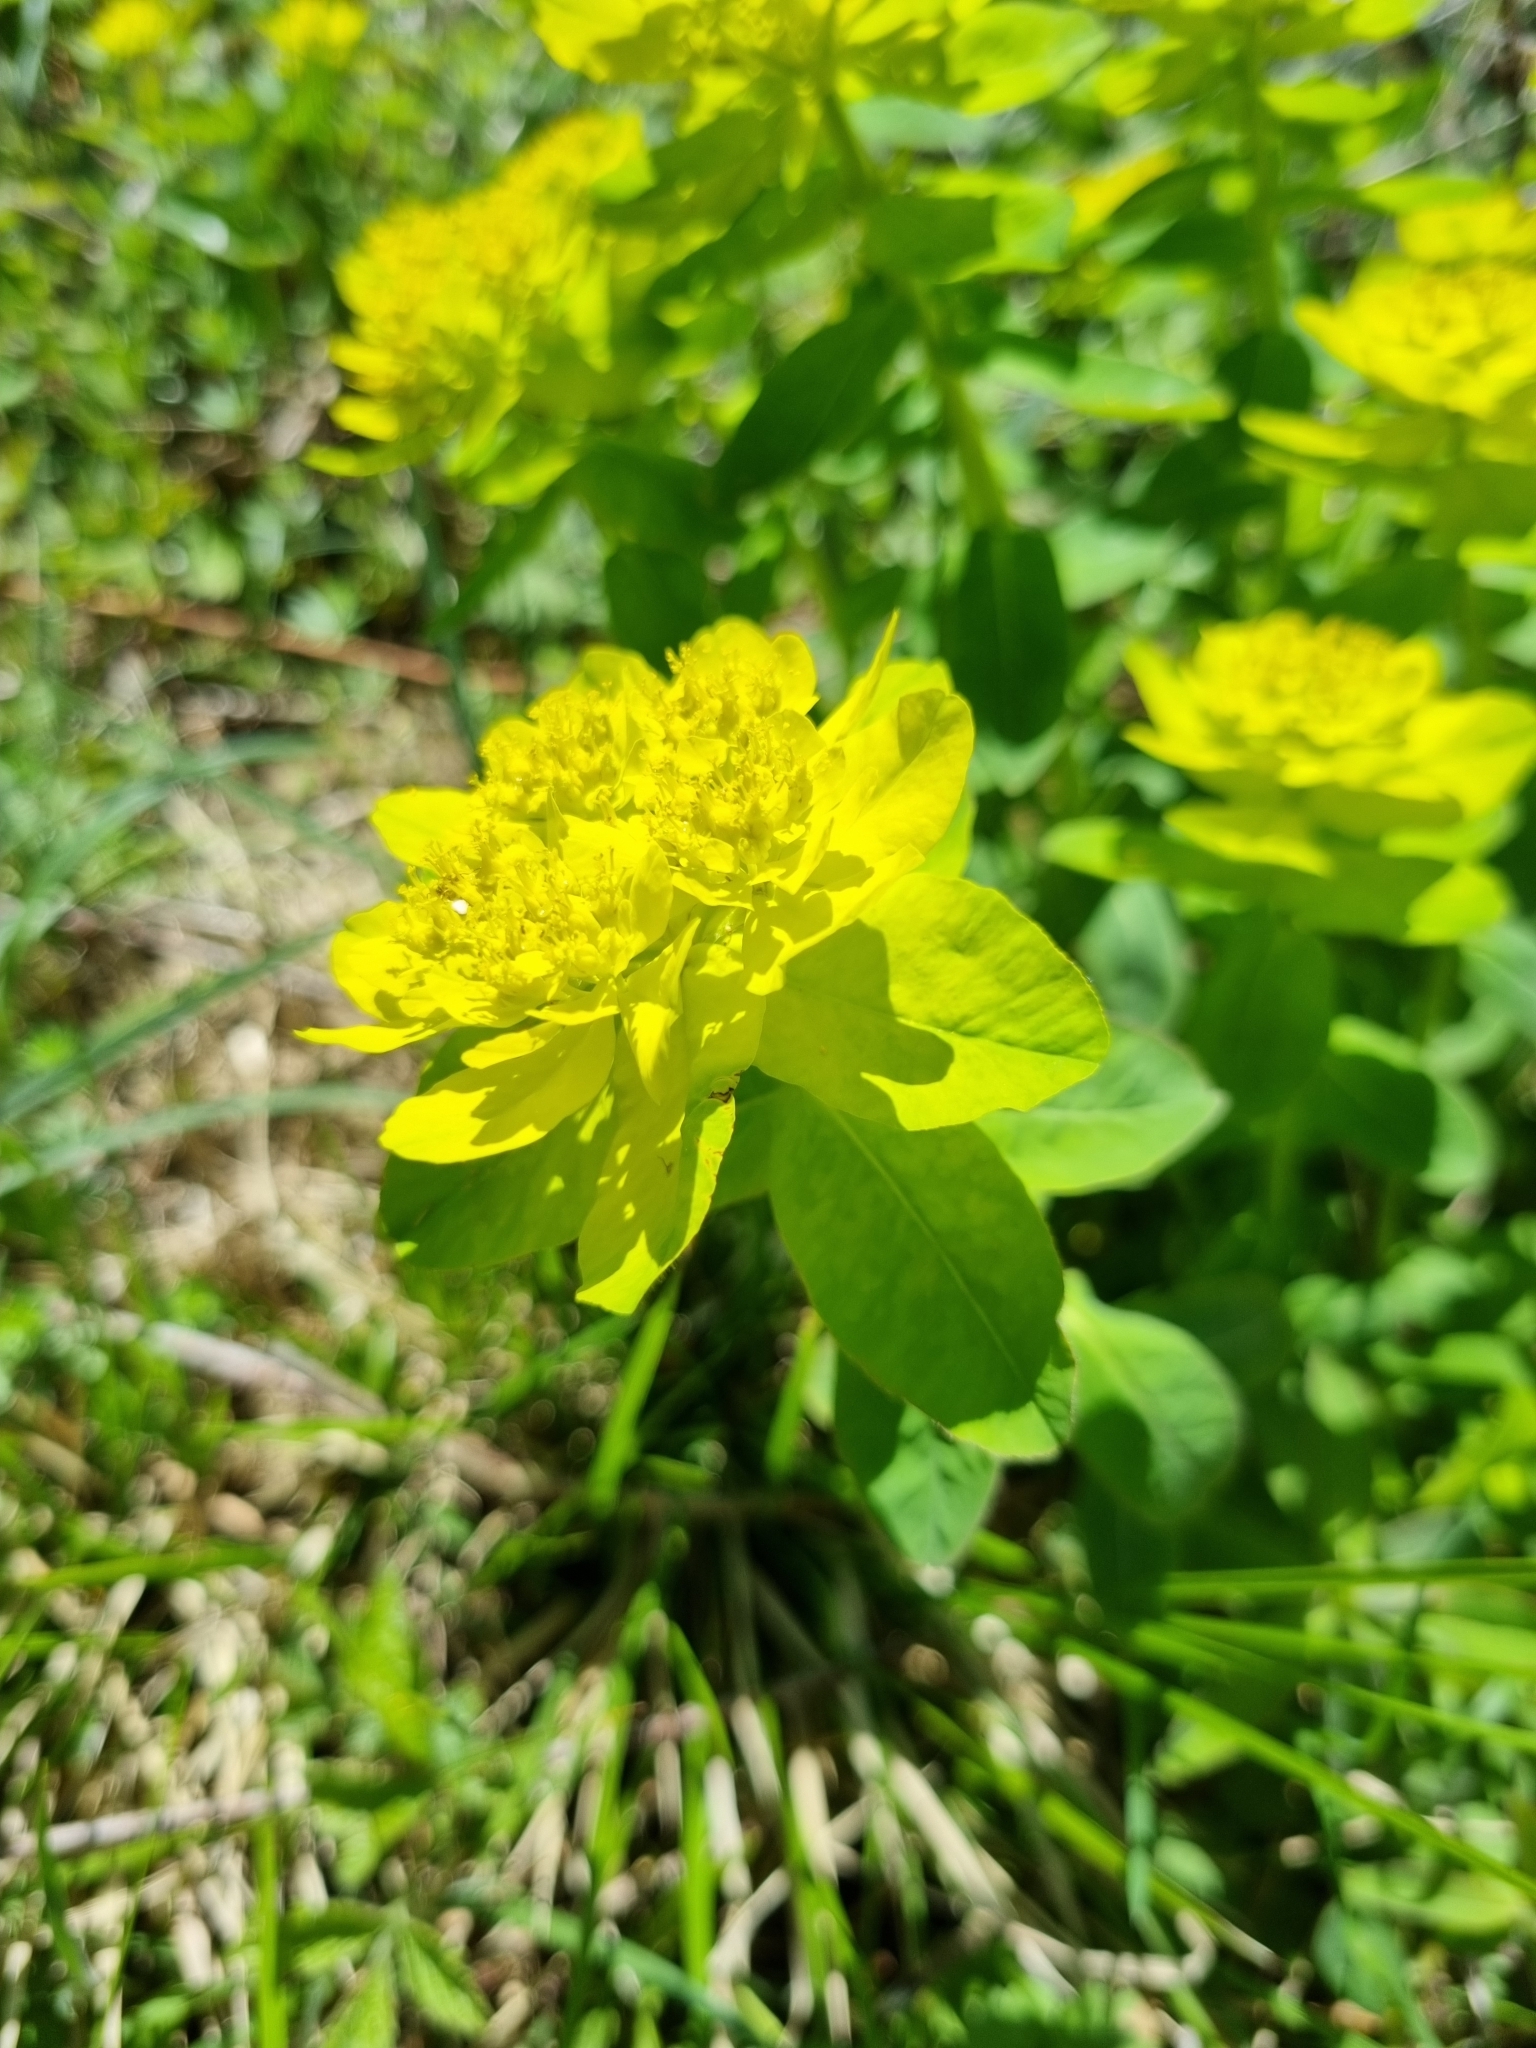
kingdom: Plantae
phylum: Tracheophyta
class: Magnoliopsida
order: Malpighiales
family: Euphorbiaceae
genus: Euphorbia
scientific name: Euphorbia verrucosa
